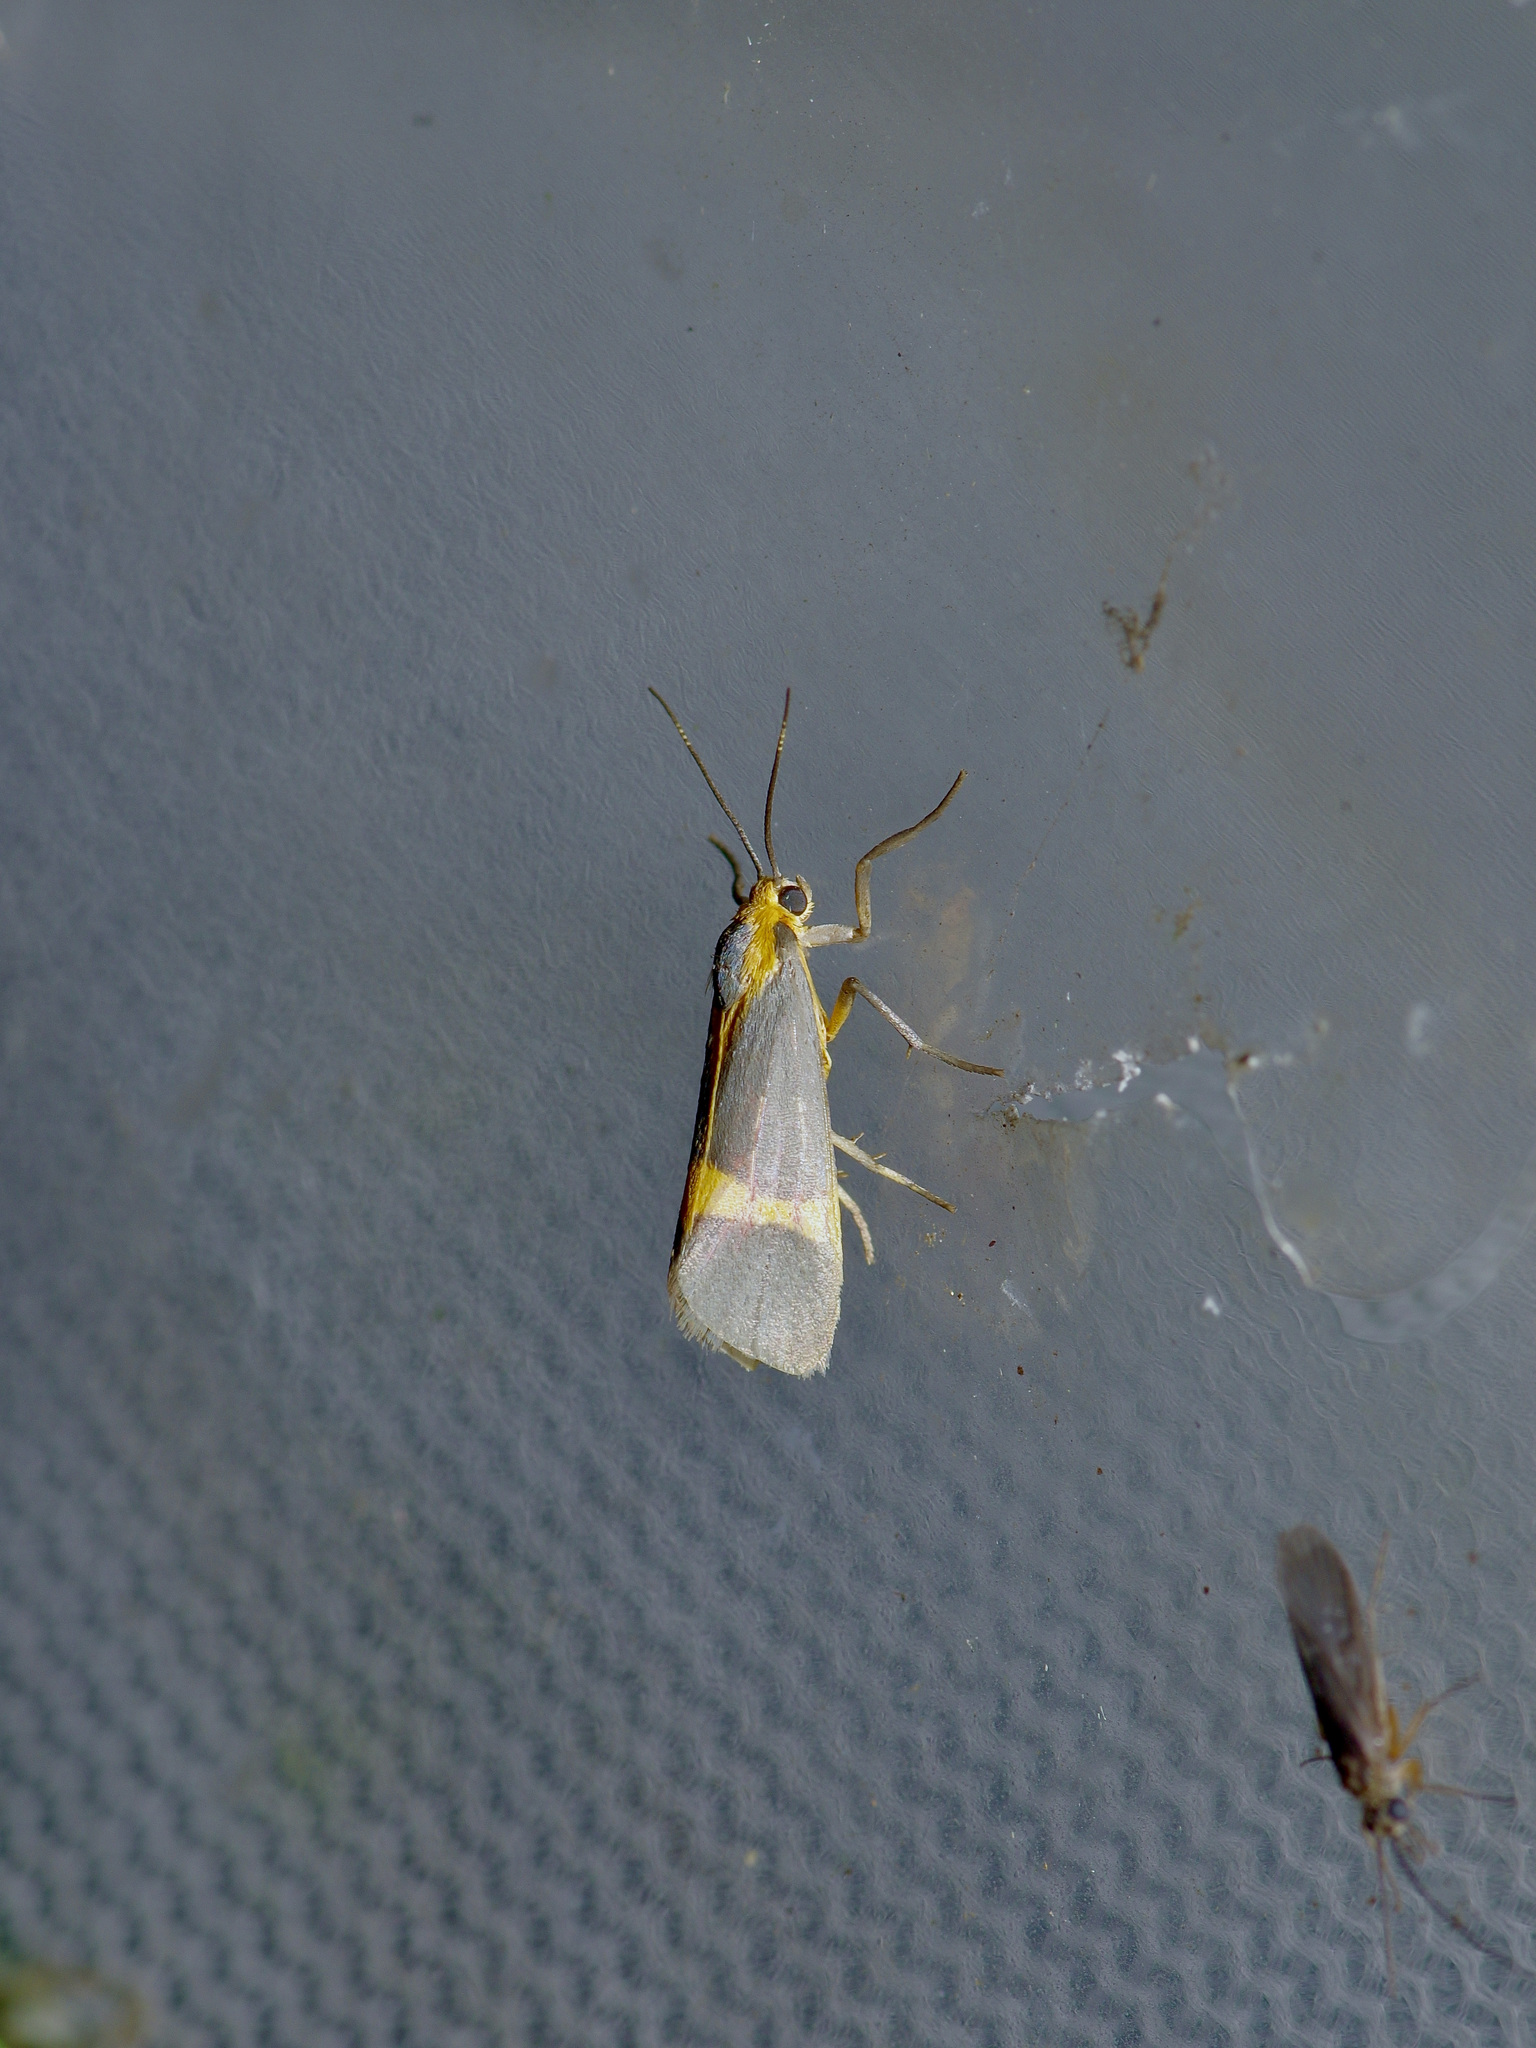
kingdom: Animalia
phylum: Arthropoda
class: Insecta
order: Lepidoptera
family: Erebidae
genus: Cisthene
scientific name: Cisthene tenuifascia
